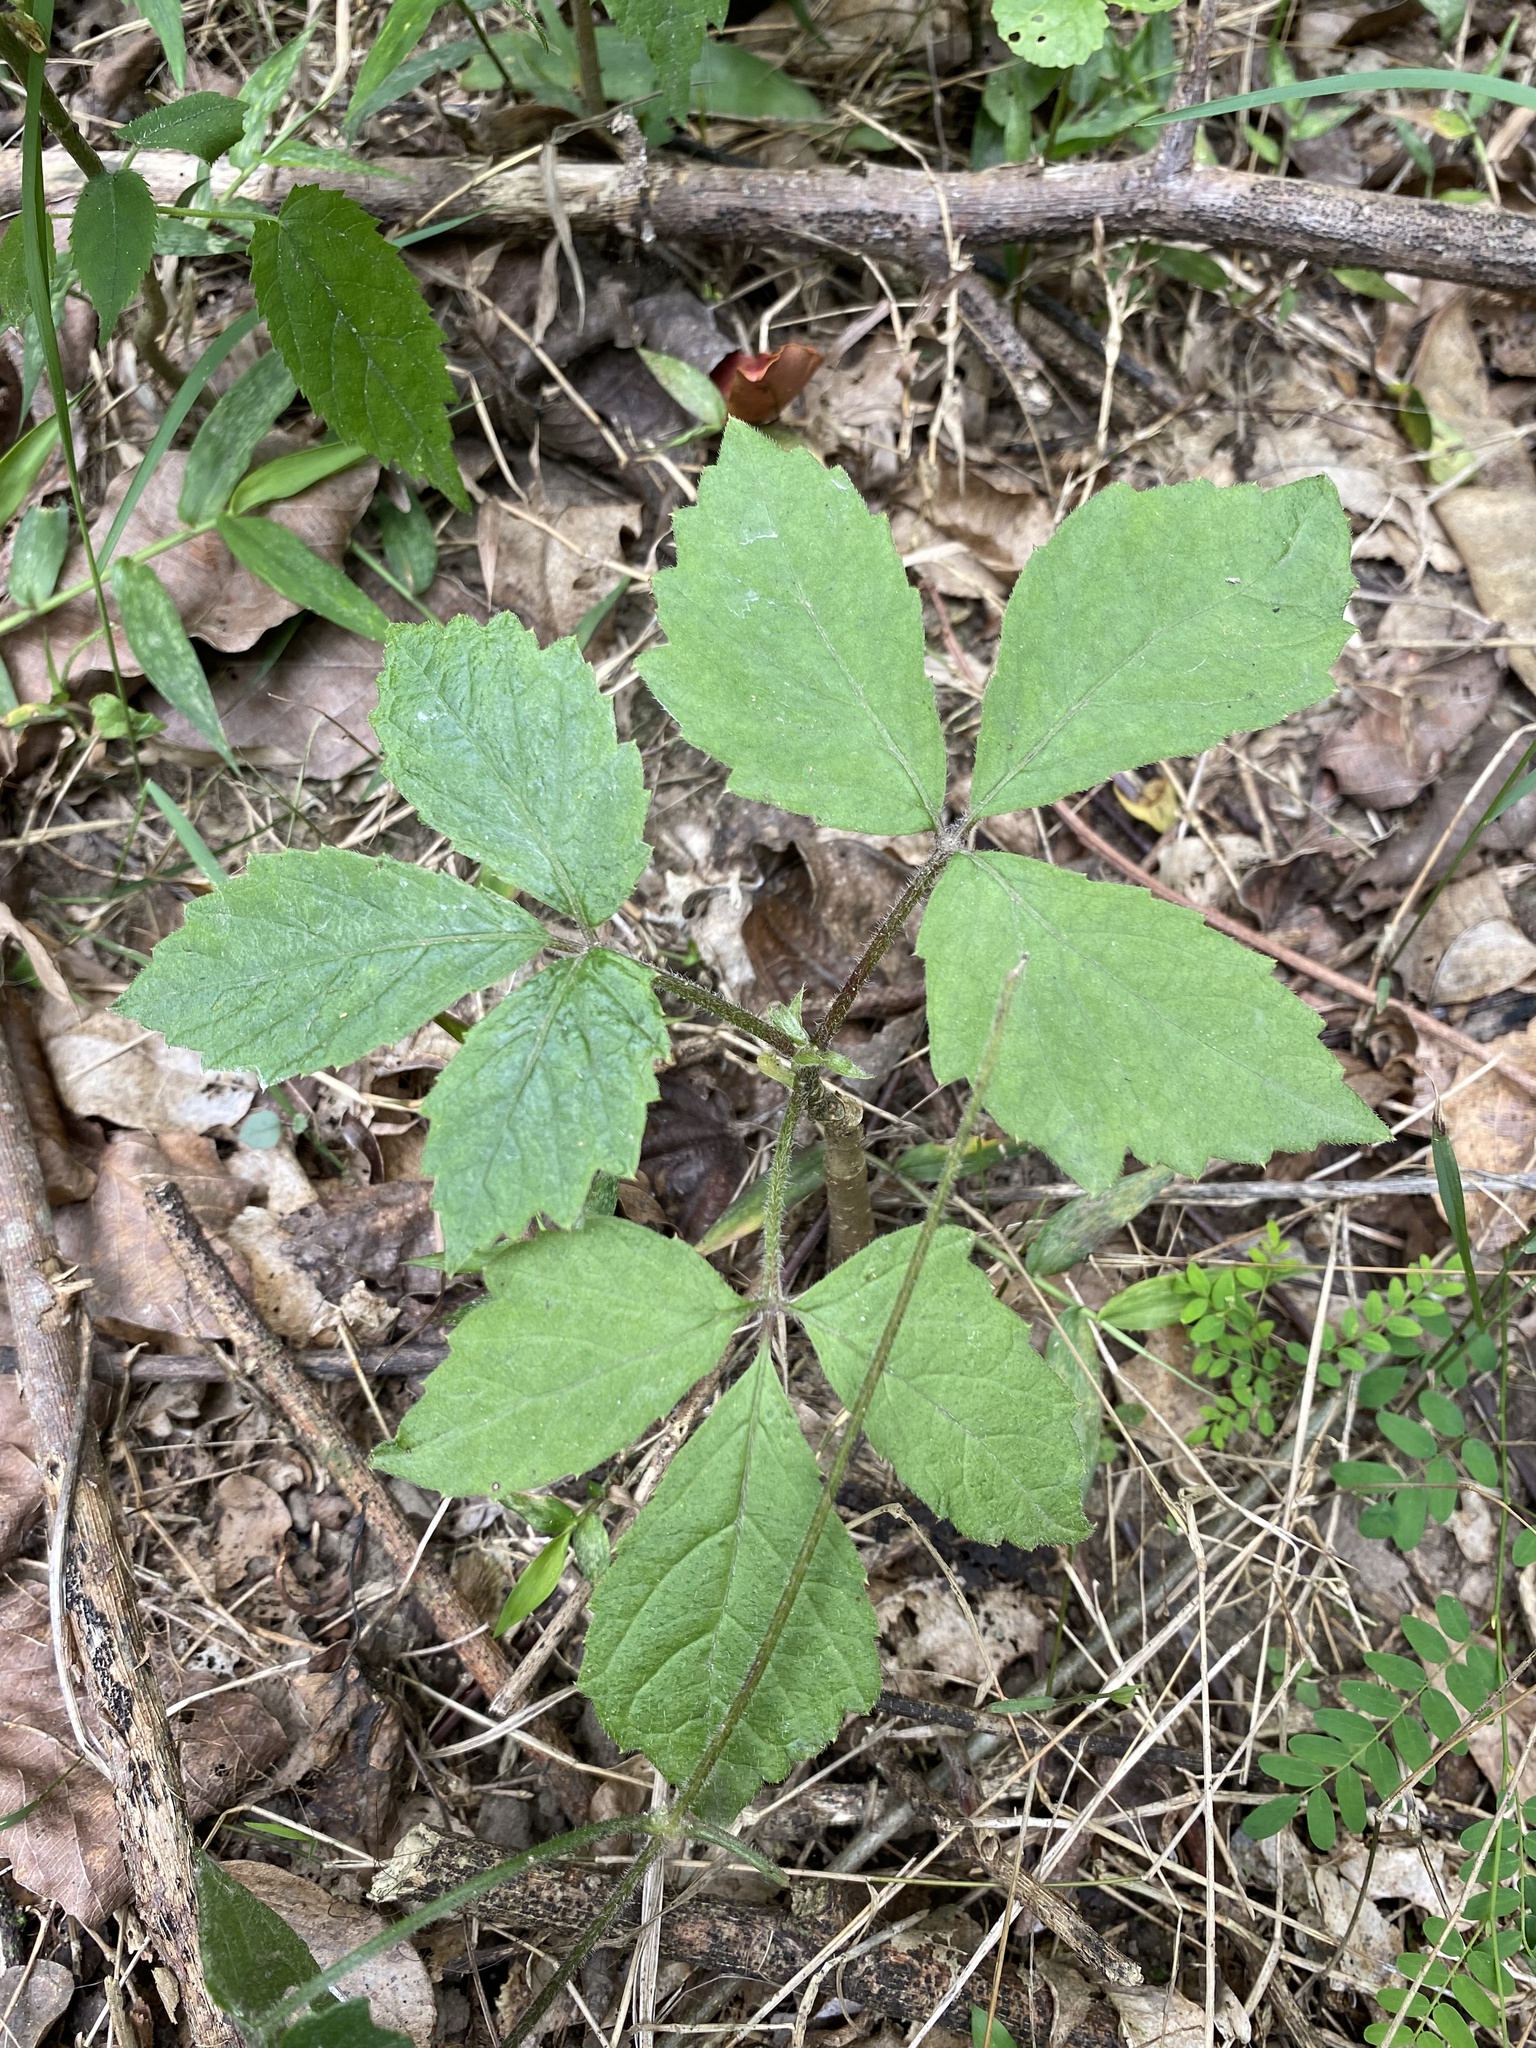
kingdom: Plantae
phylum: Tracheophyta
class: Magnoliopsida
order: Vitales
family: Vitaceae
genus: Cyphostemma
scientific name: Cyphostemma hypoleucum
